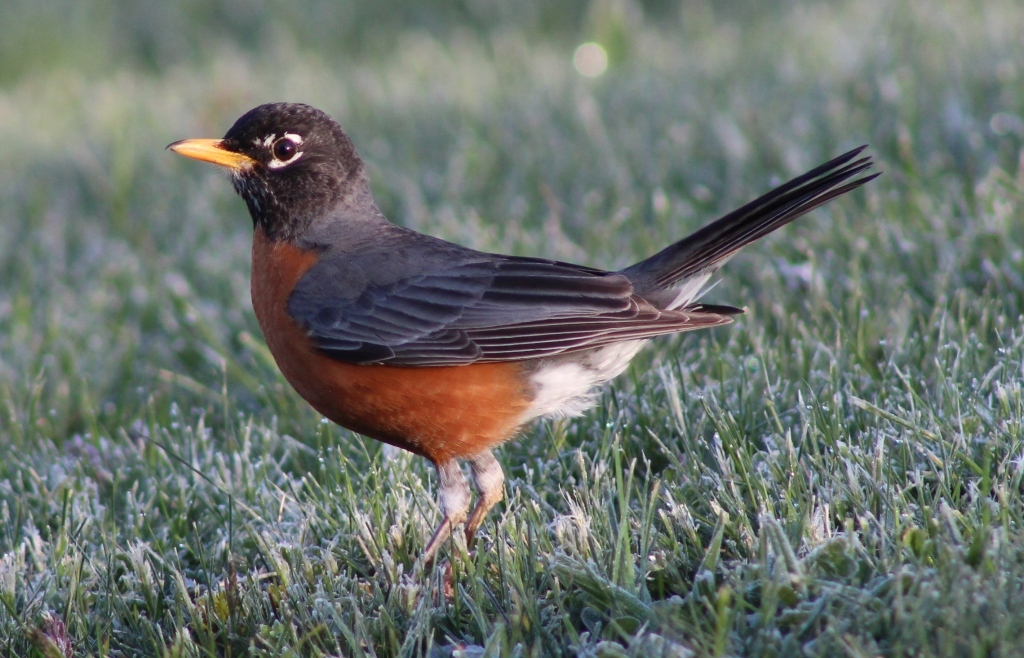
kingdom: Animalia
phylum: Chordata
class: Aves
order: Passeriformes
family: Turdidae
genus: Turdus
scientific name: Turdus migratorius
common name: American robin
